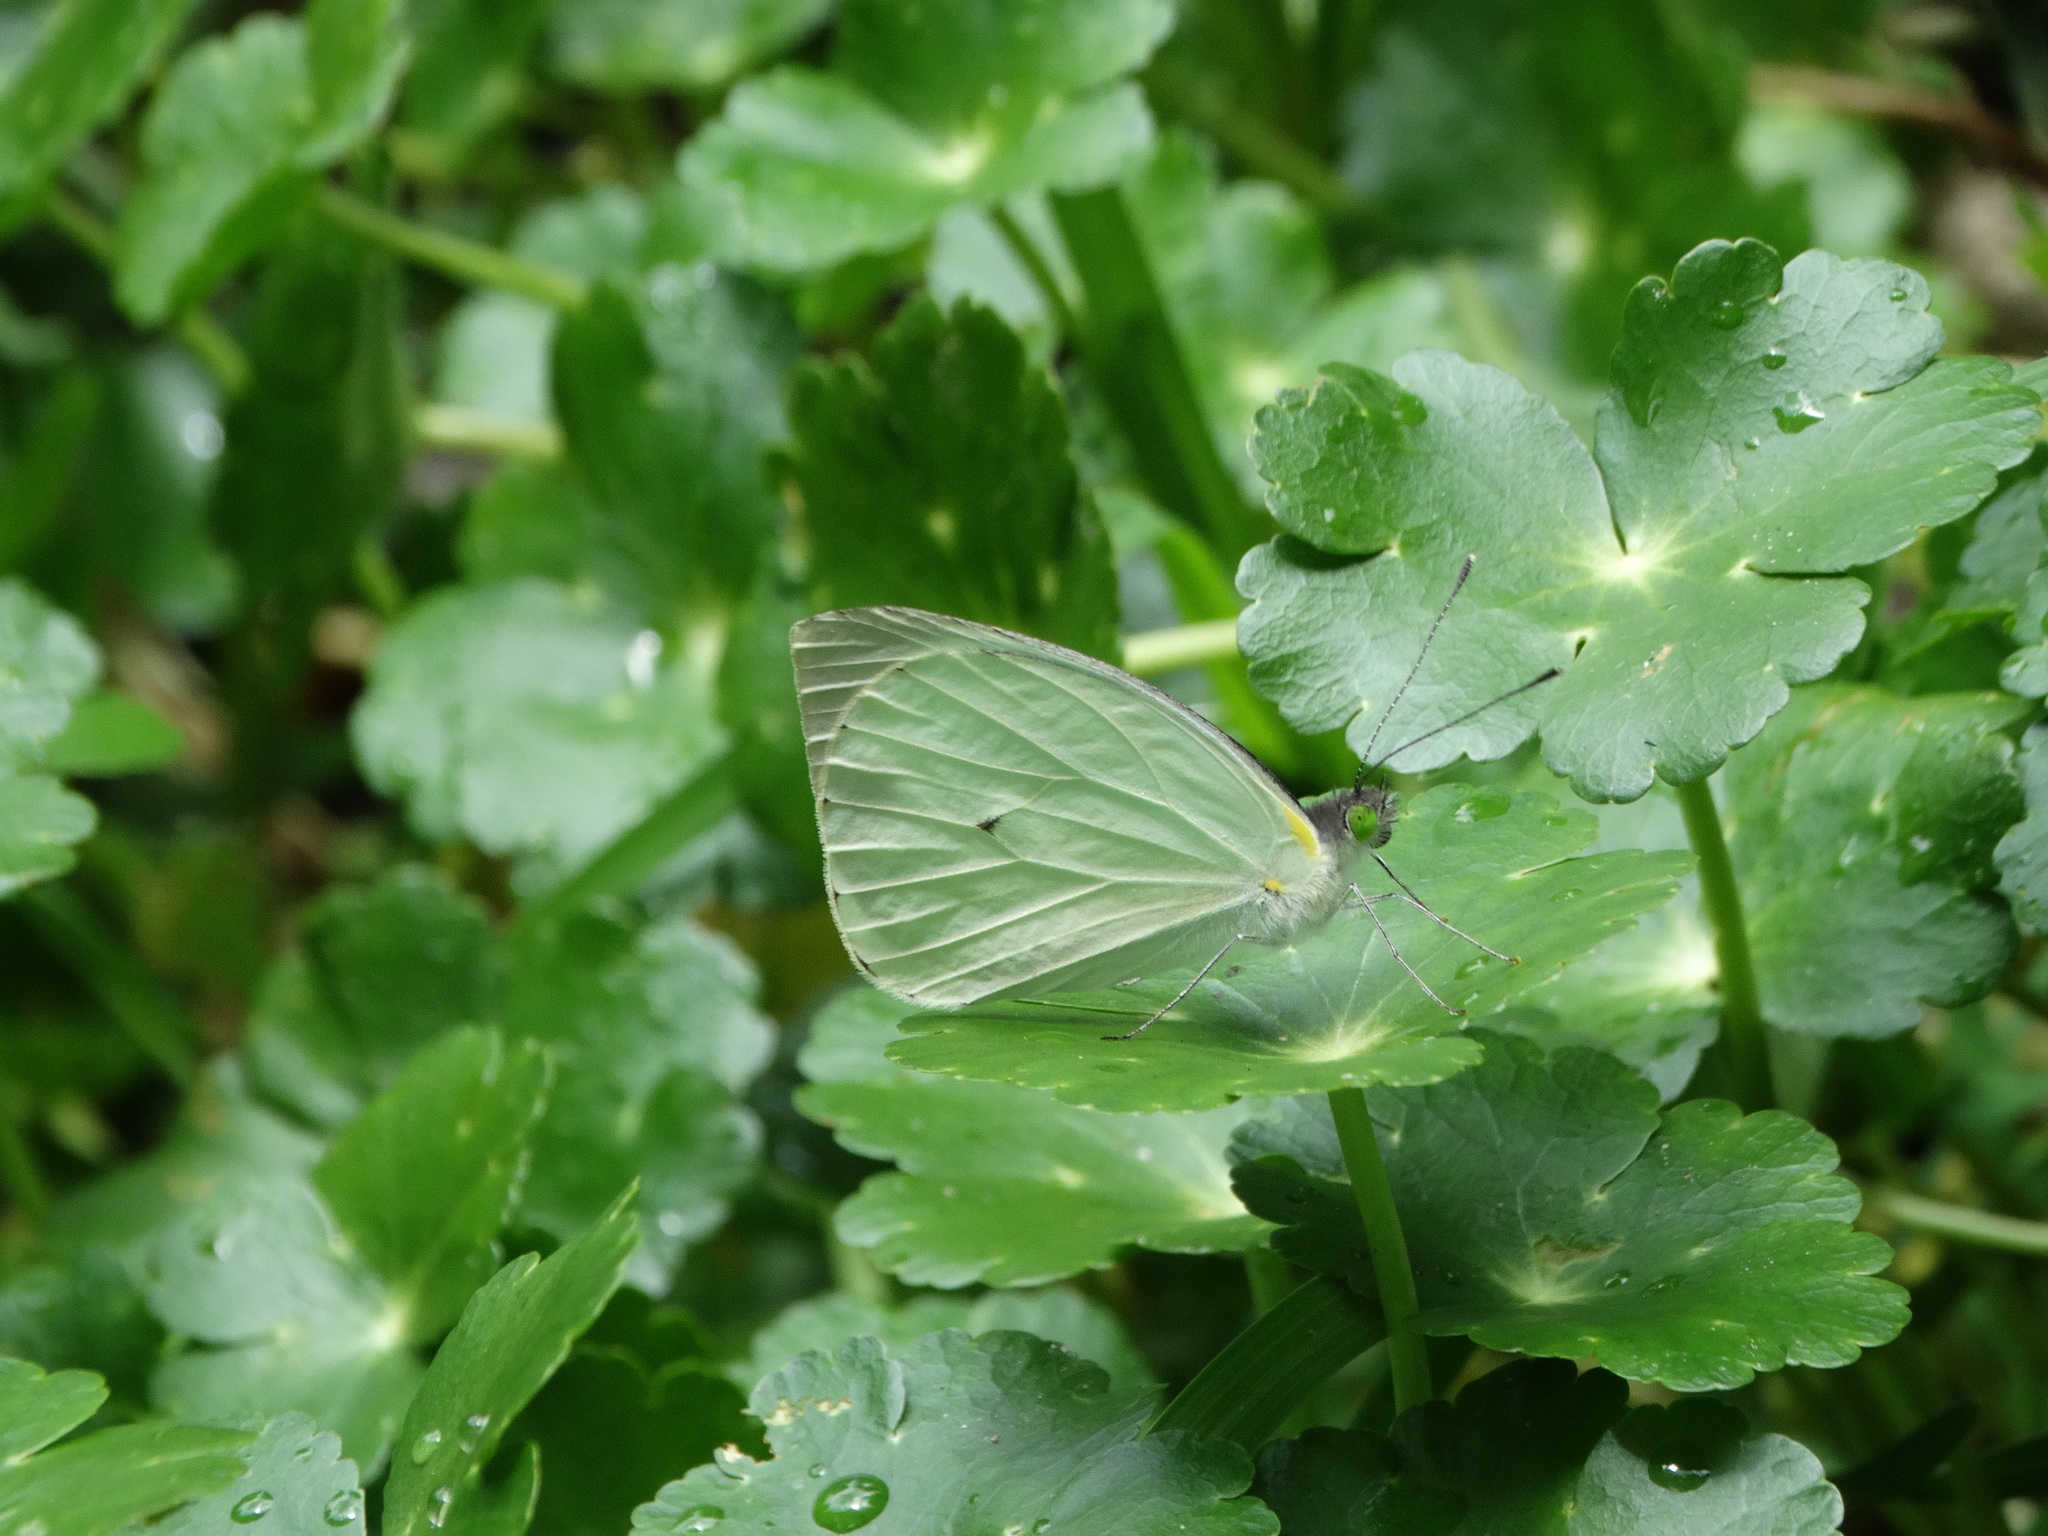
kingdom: Animalia
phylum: Arthropoda
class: Insecta
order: Lepidoptera
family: Pieridae
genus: Leptophobia
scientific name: Leptophobia aripa
